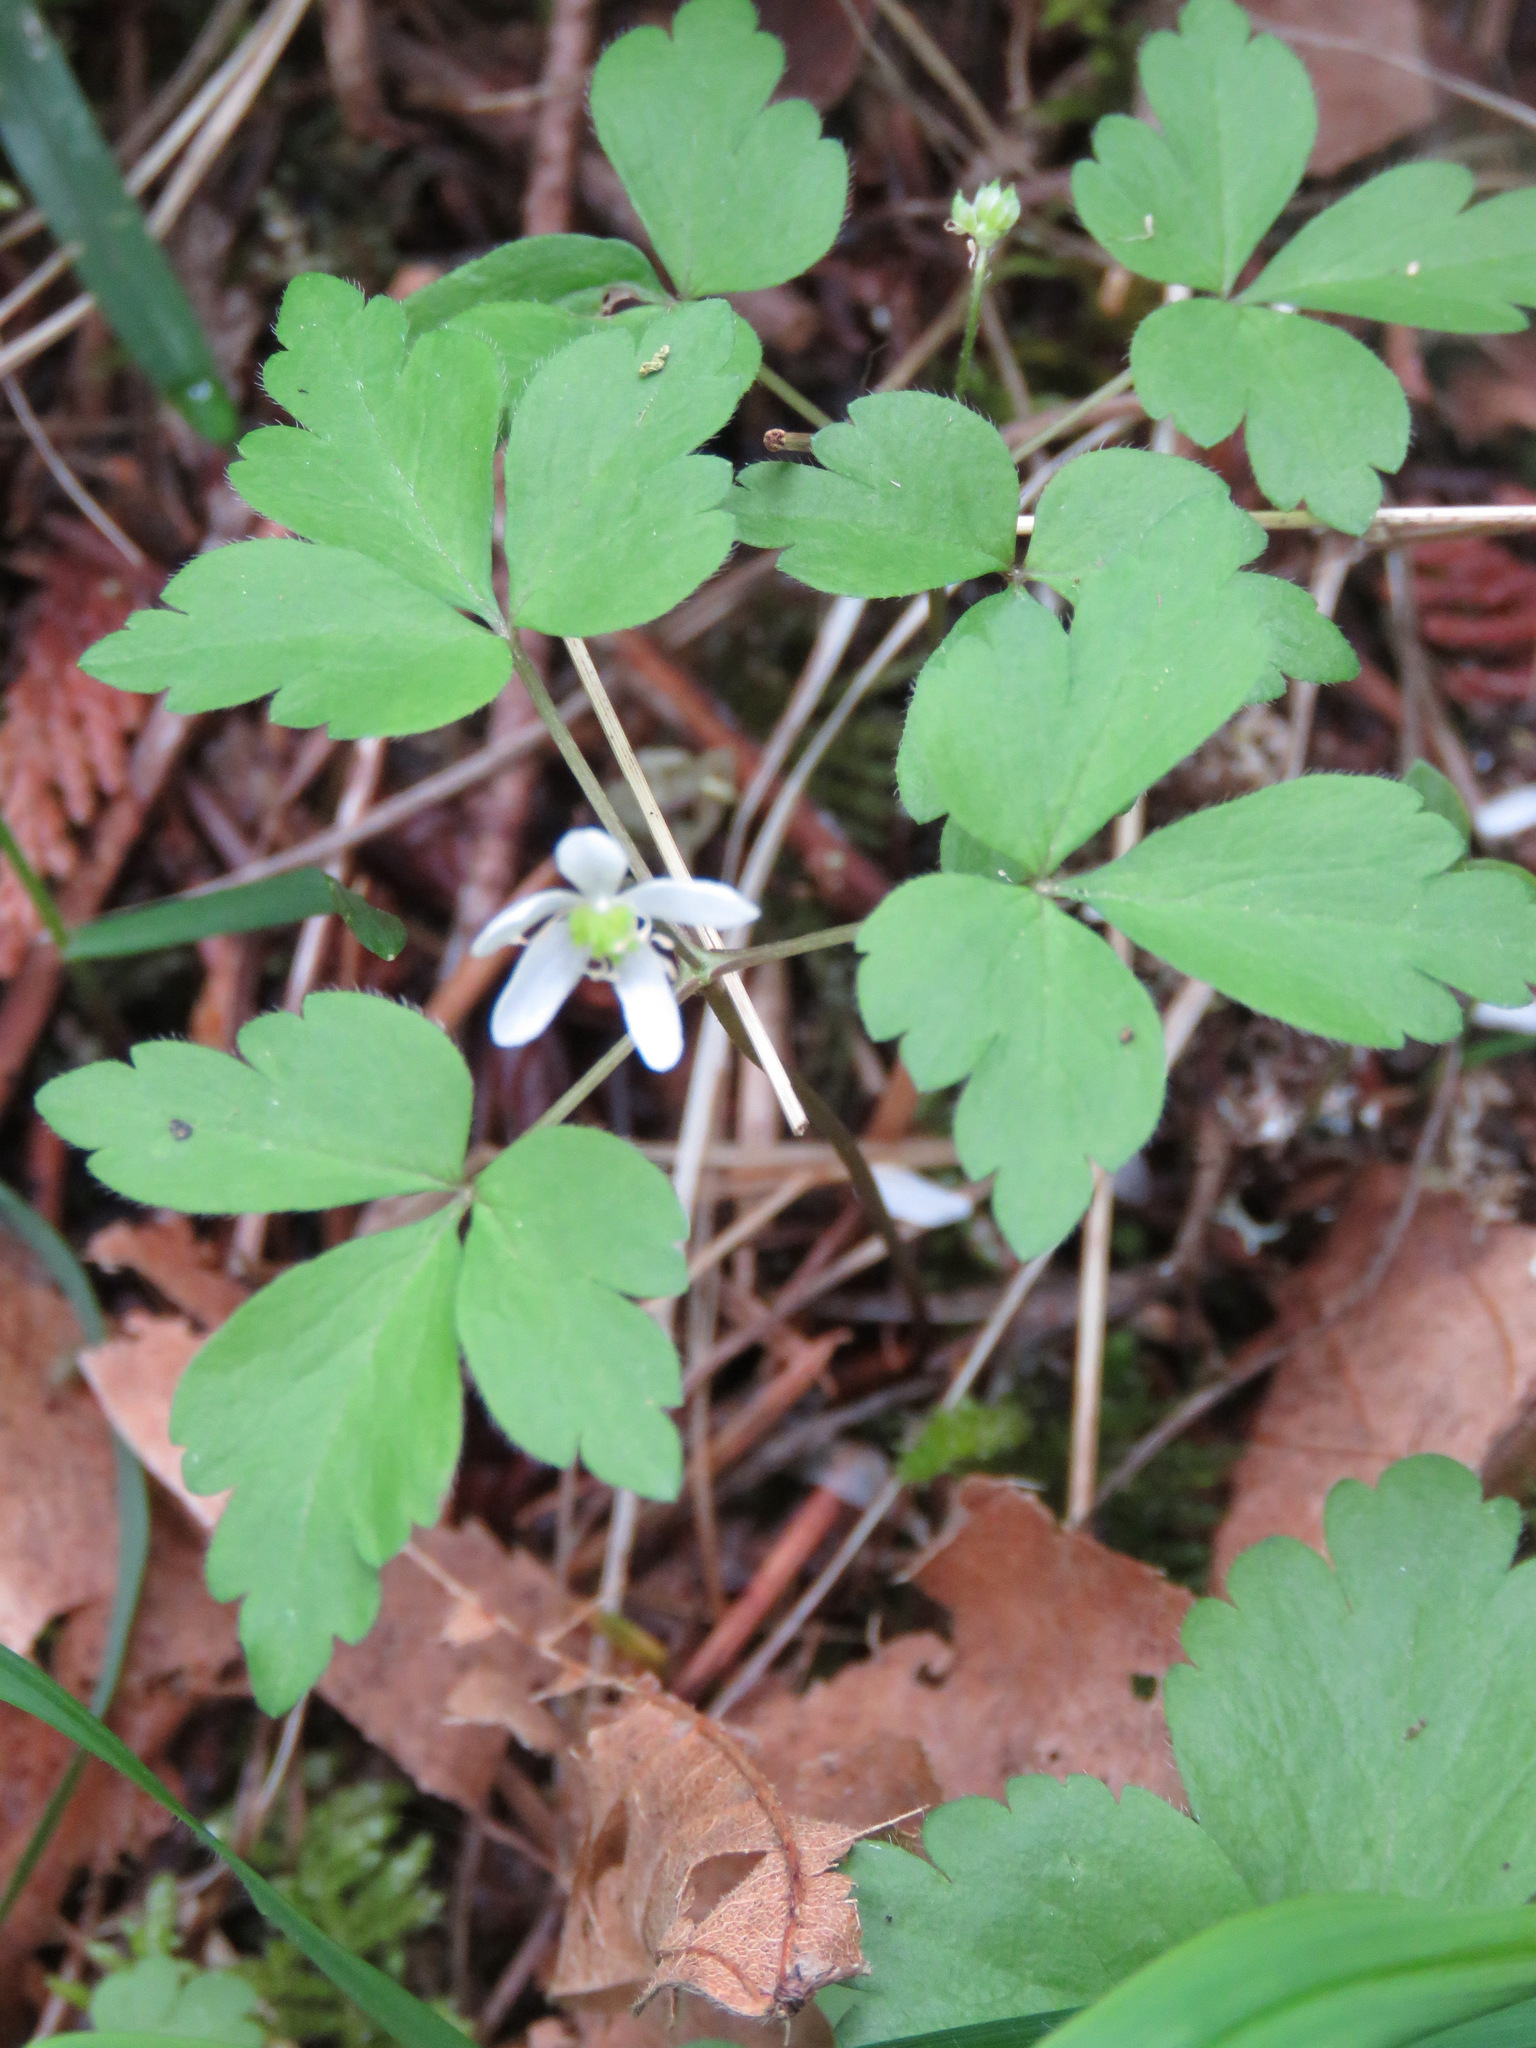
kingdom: Plantae
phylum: Tracheophyta
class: Magnoliopsida
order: Ranunculales
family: Ranunculaceae
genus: Anemone
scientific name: Anemone
